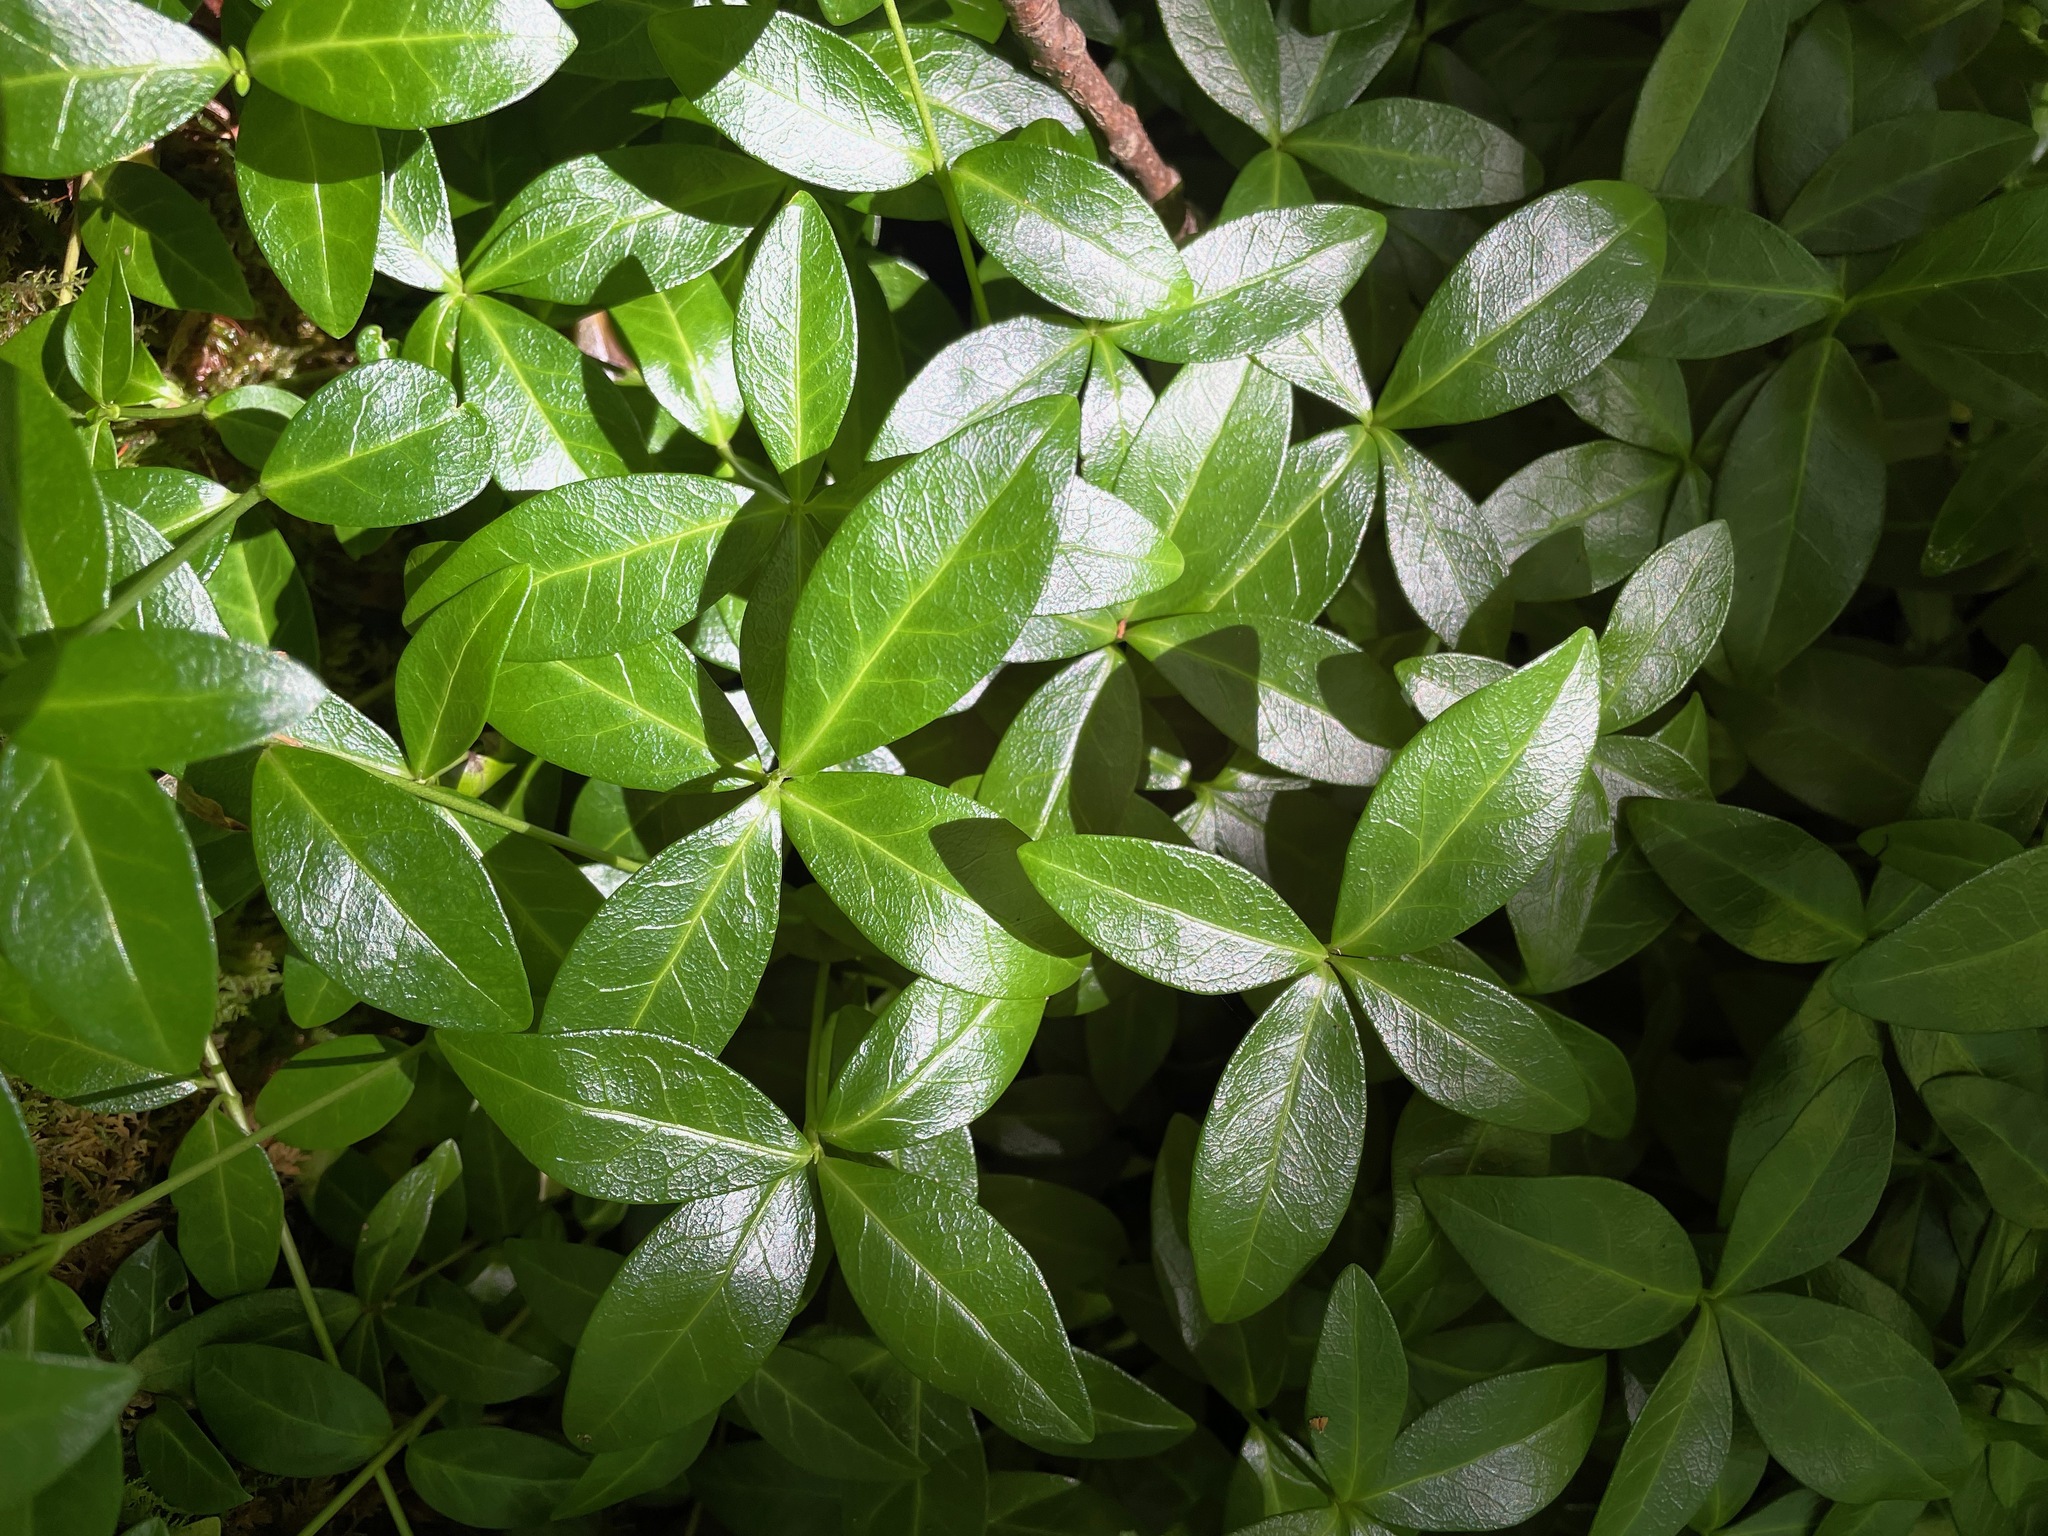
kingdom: Plantae
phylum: Tracheophyta
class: Magnoliopsida
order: Gentianales
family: Apocynaceae
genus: Vinca
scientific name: Vinca minor
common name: Lesser periwinkle
